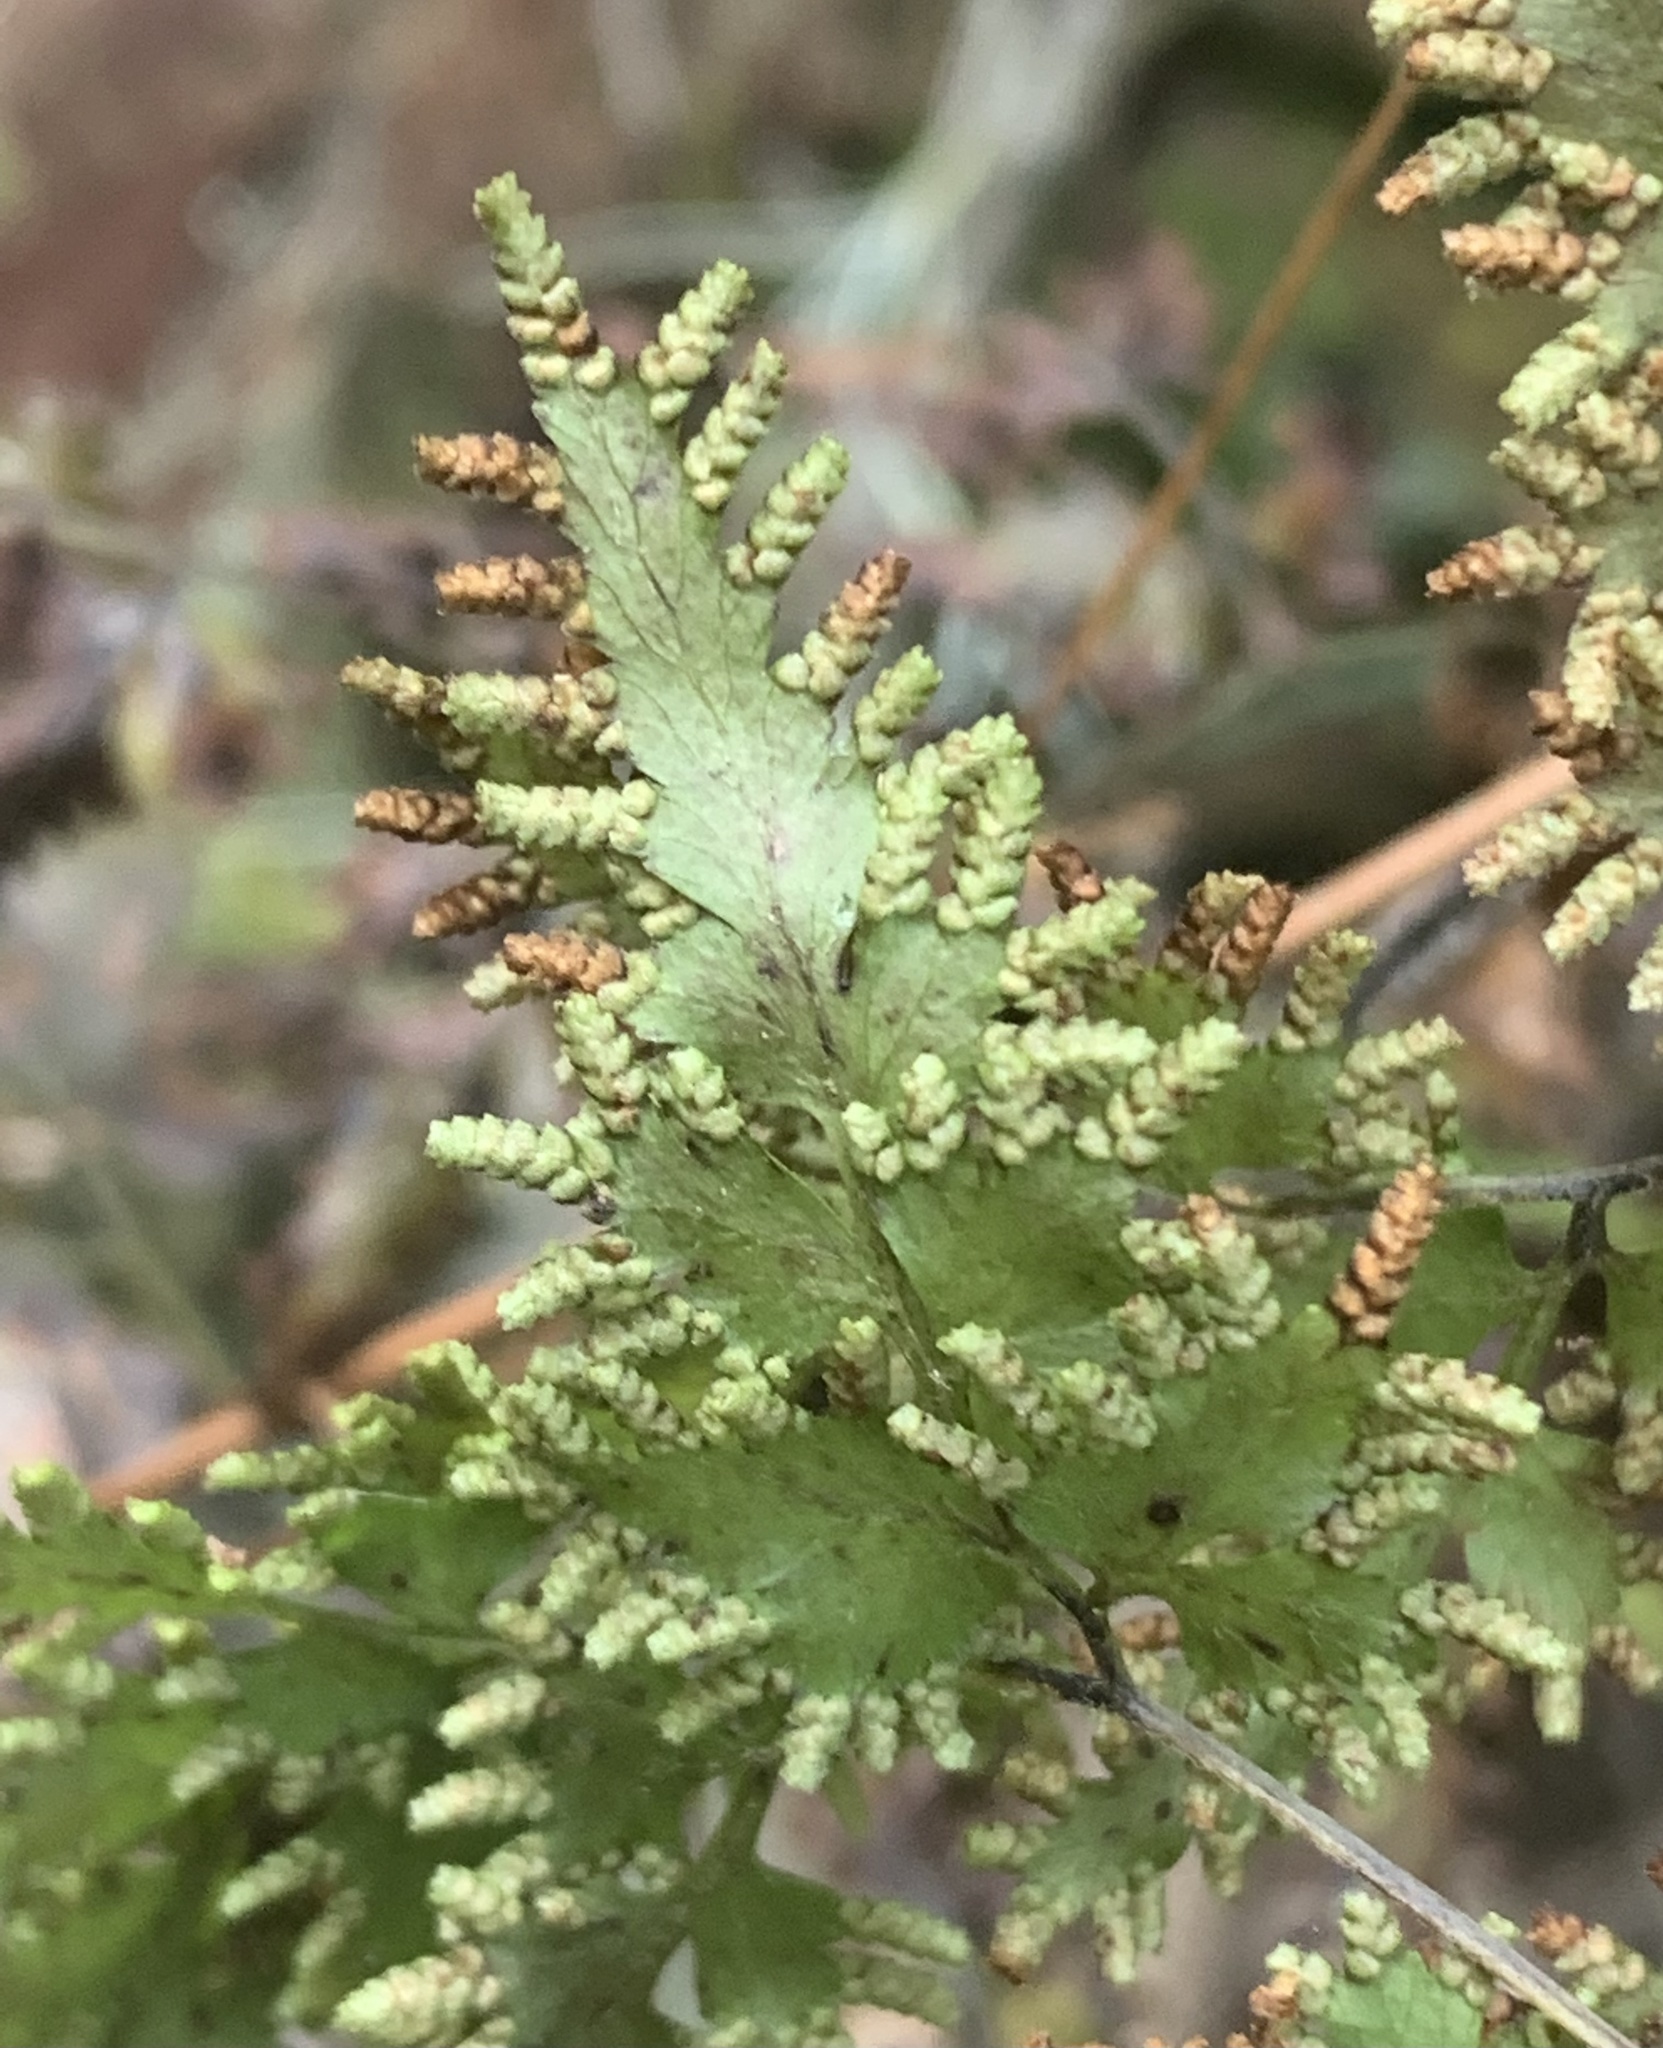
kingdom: Plantae
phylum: Tracheophyta
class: Polypodiopsida
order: Schizaeales
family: Lygodiaceae
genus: Lygodium
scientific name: Lygodium japonicum
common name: Japanese climbing fern
